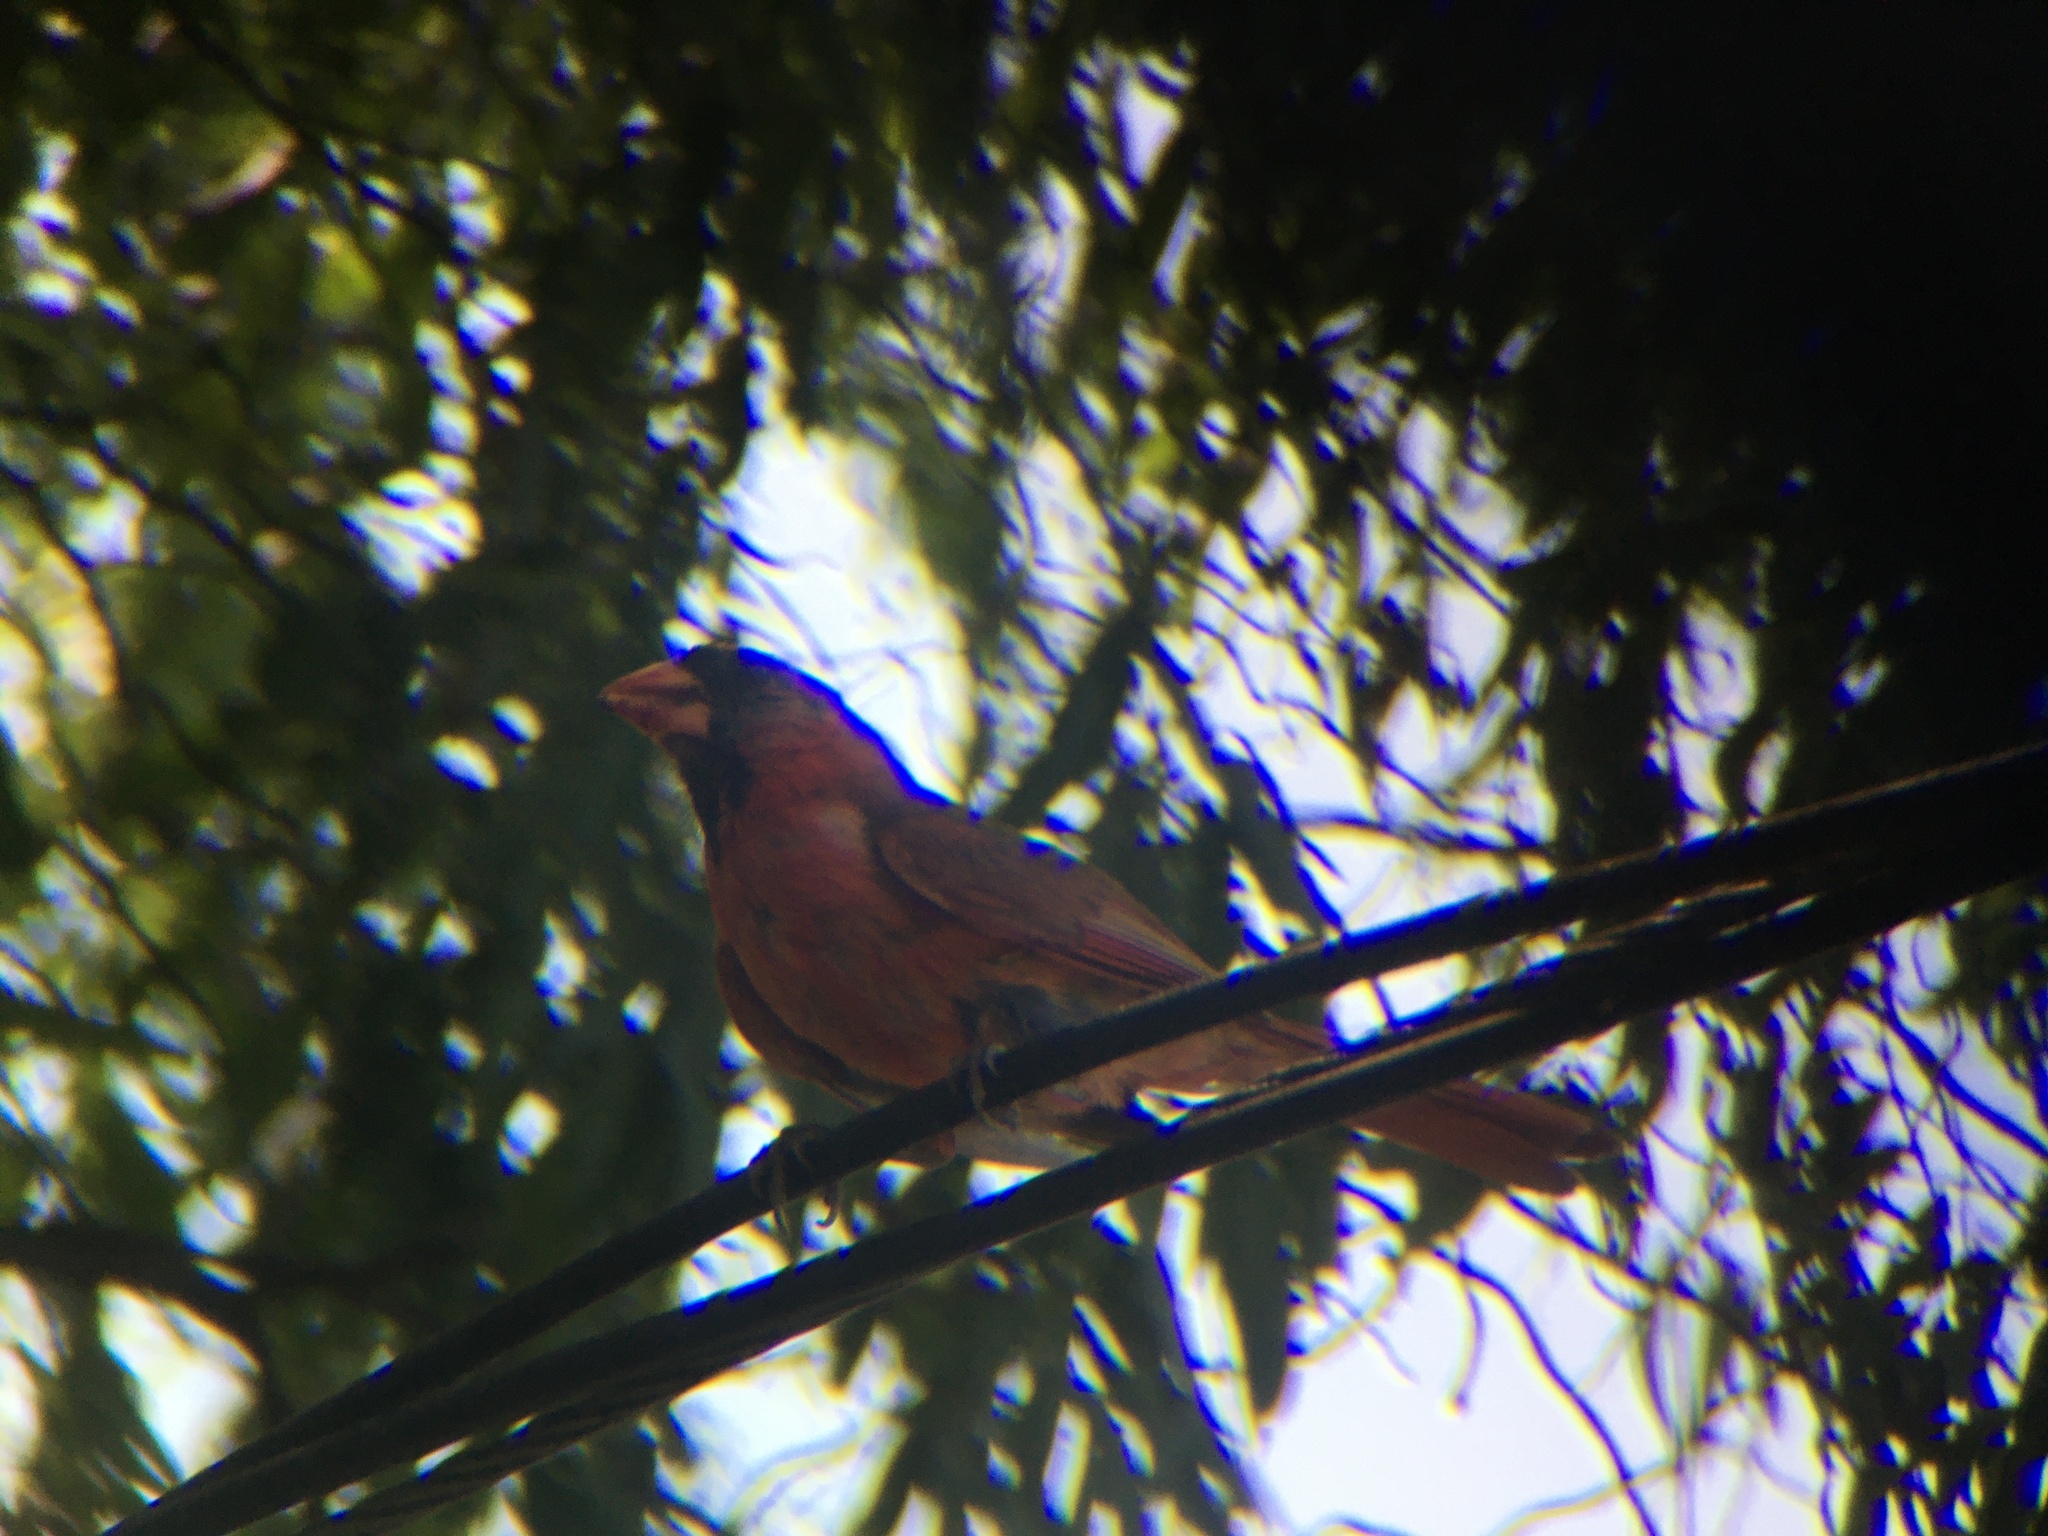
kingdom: Animalia
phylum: Chordata
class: Aves
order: Passeriformes
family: Cardinalidae
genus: Cardinalis
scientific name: Cardinalis cardinalis
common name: Northern cardinal
